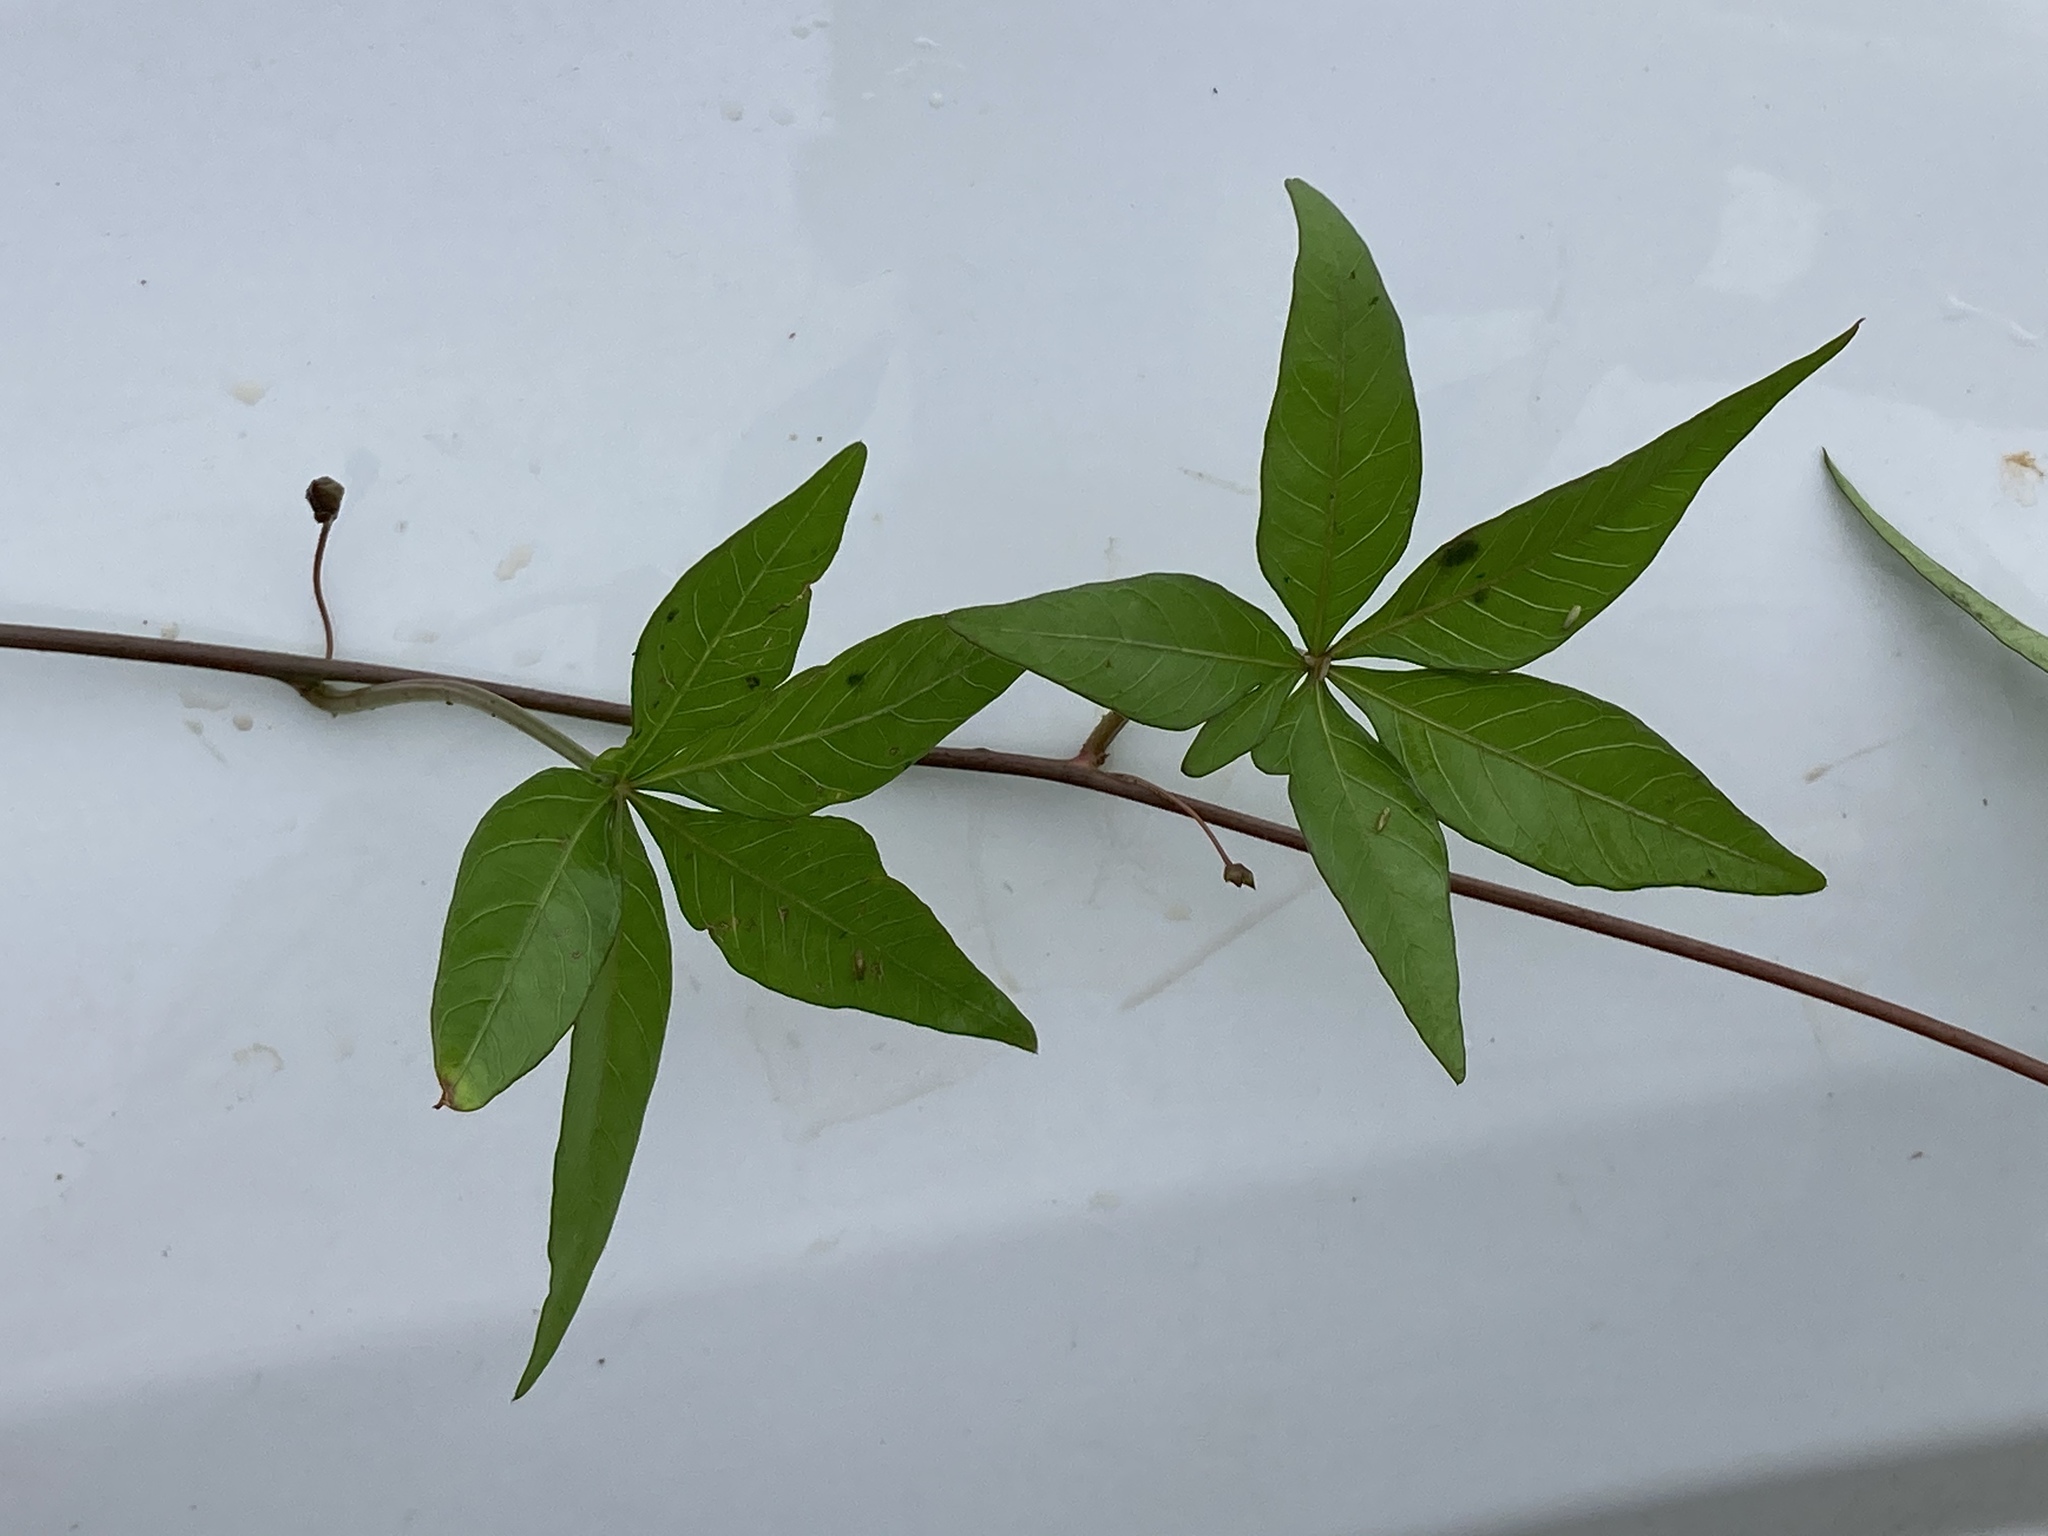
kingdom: Plantae
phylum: Tracheophyta
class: Magnoliopsida
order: Solanales
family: Convolvulaceae
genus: Ipomoea
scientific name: Ipomoea heptaphylla
